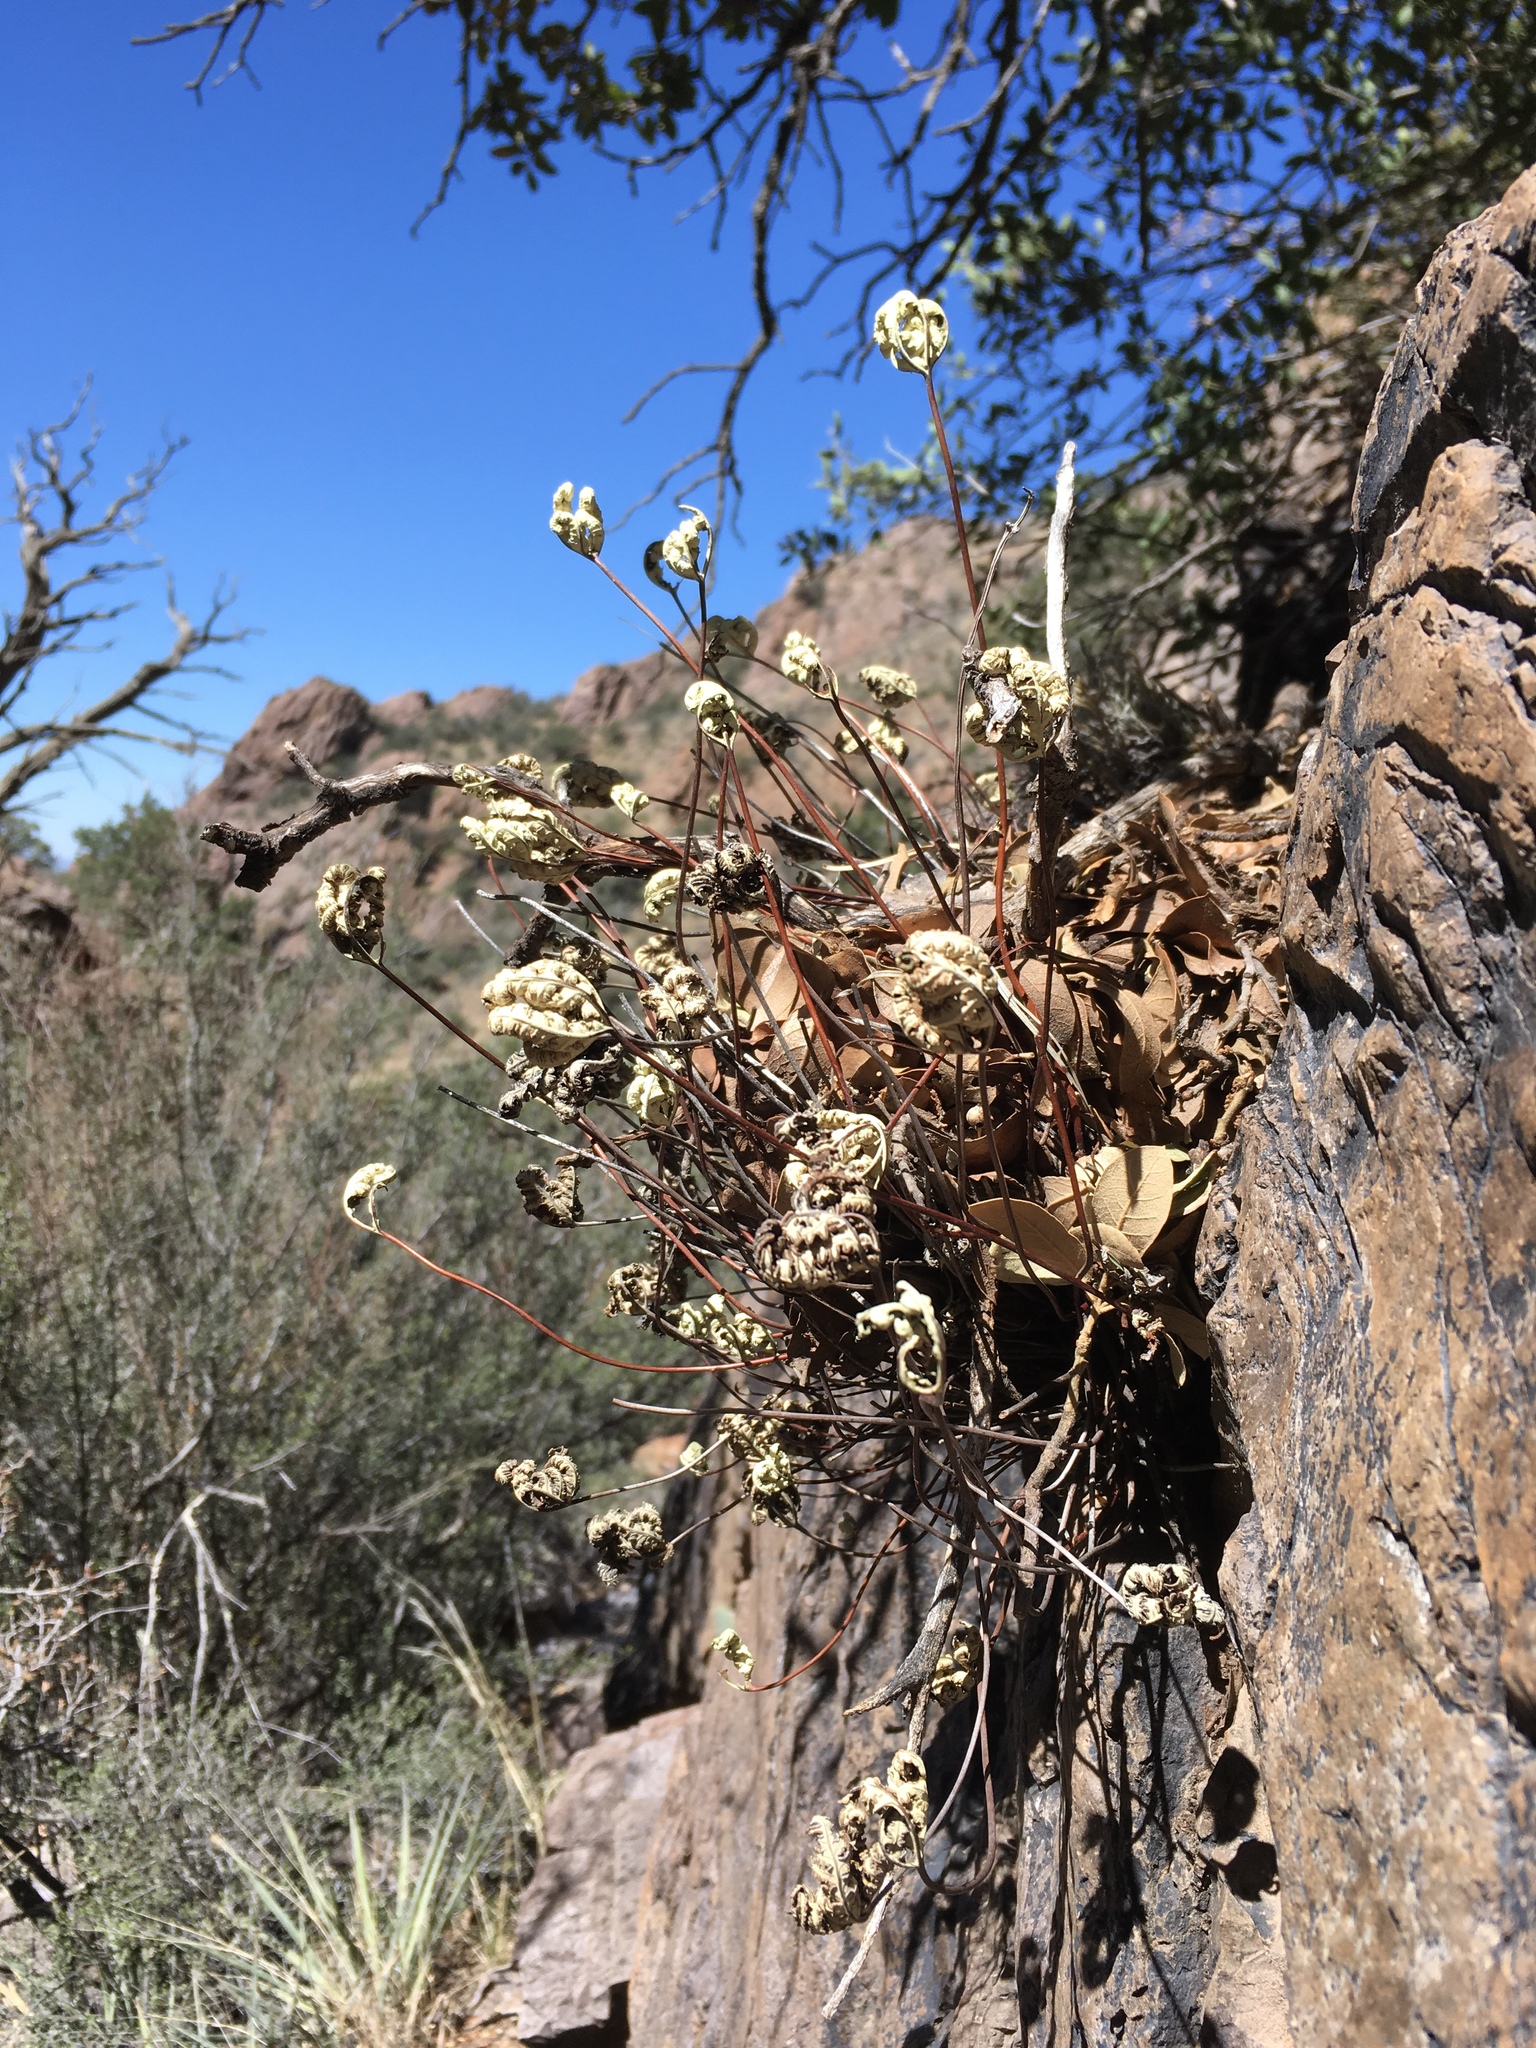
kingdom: Plantae
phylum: Tracheophyta
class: Polypodiopsida
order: Polypodiales
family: Pteridaceae
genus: Notholaena
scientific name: Notholaena standleyi
